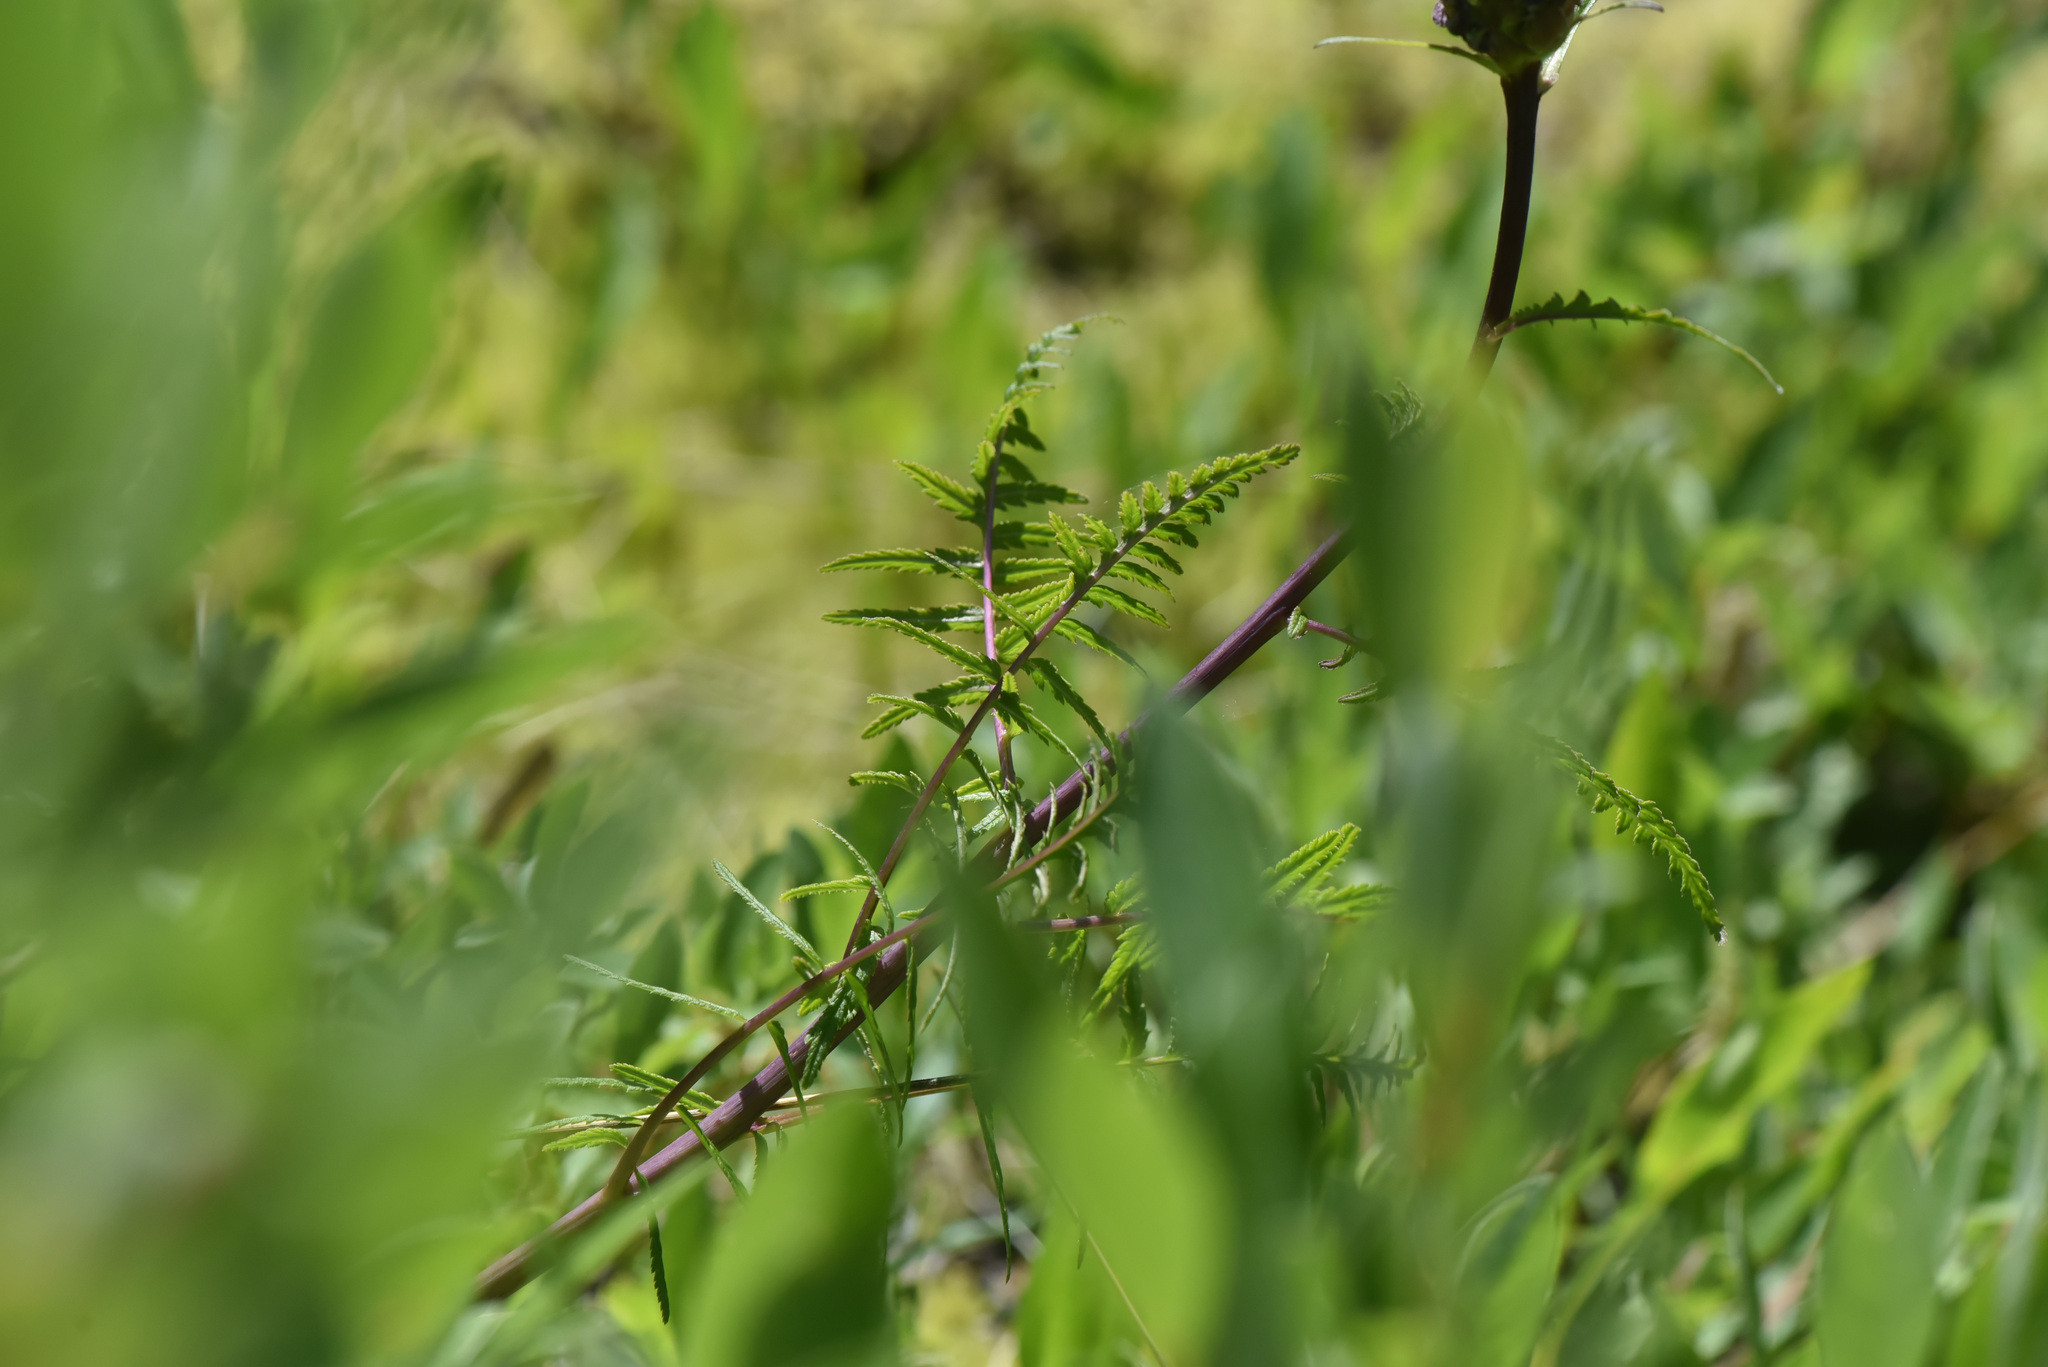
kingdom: Plantae
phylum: Tracheophyta
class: Magnoliopsida
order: Lamiales
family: Orobanchaceae
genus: Pedicularis
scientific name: Pedicularis bracteosa
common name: Bracted lousewort
